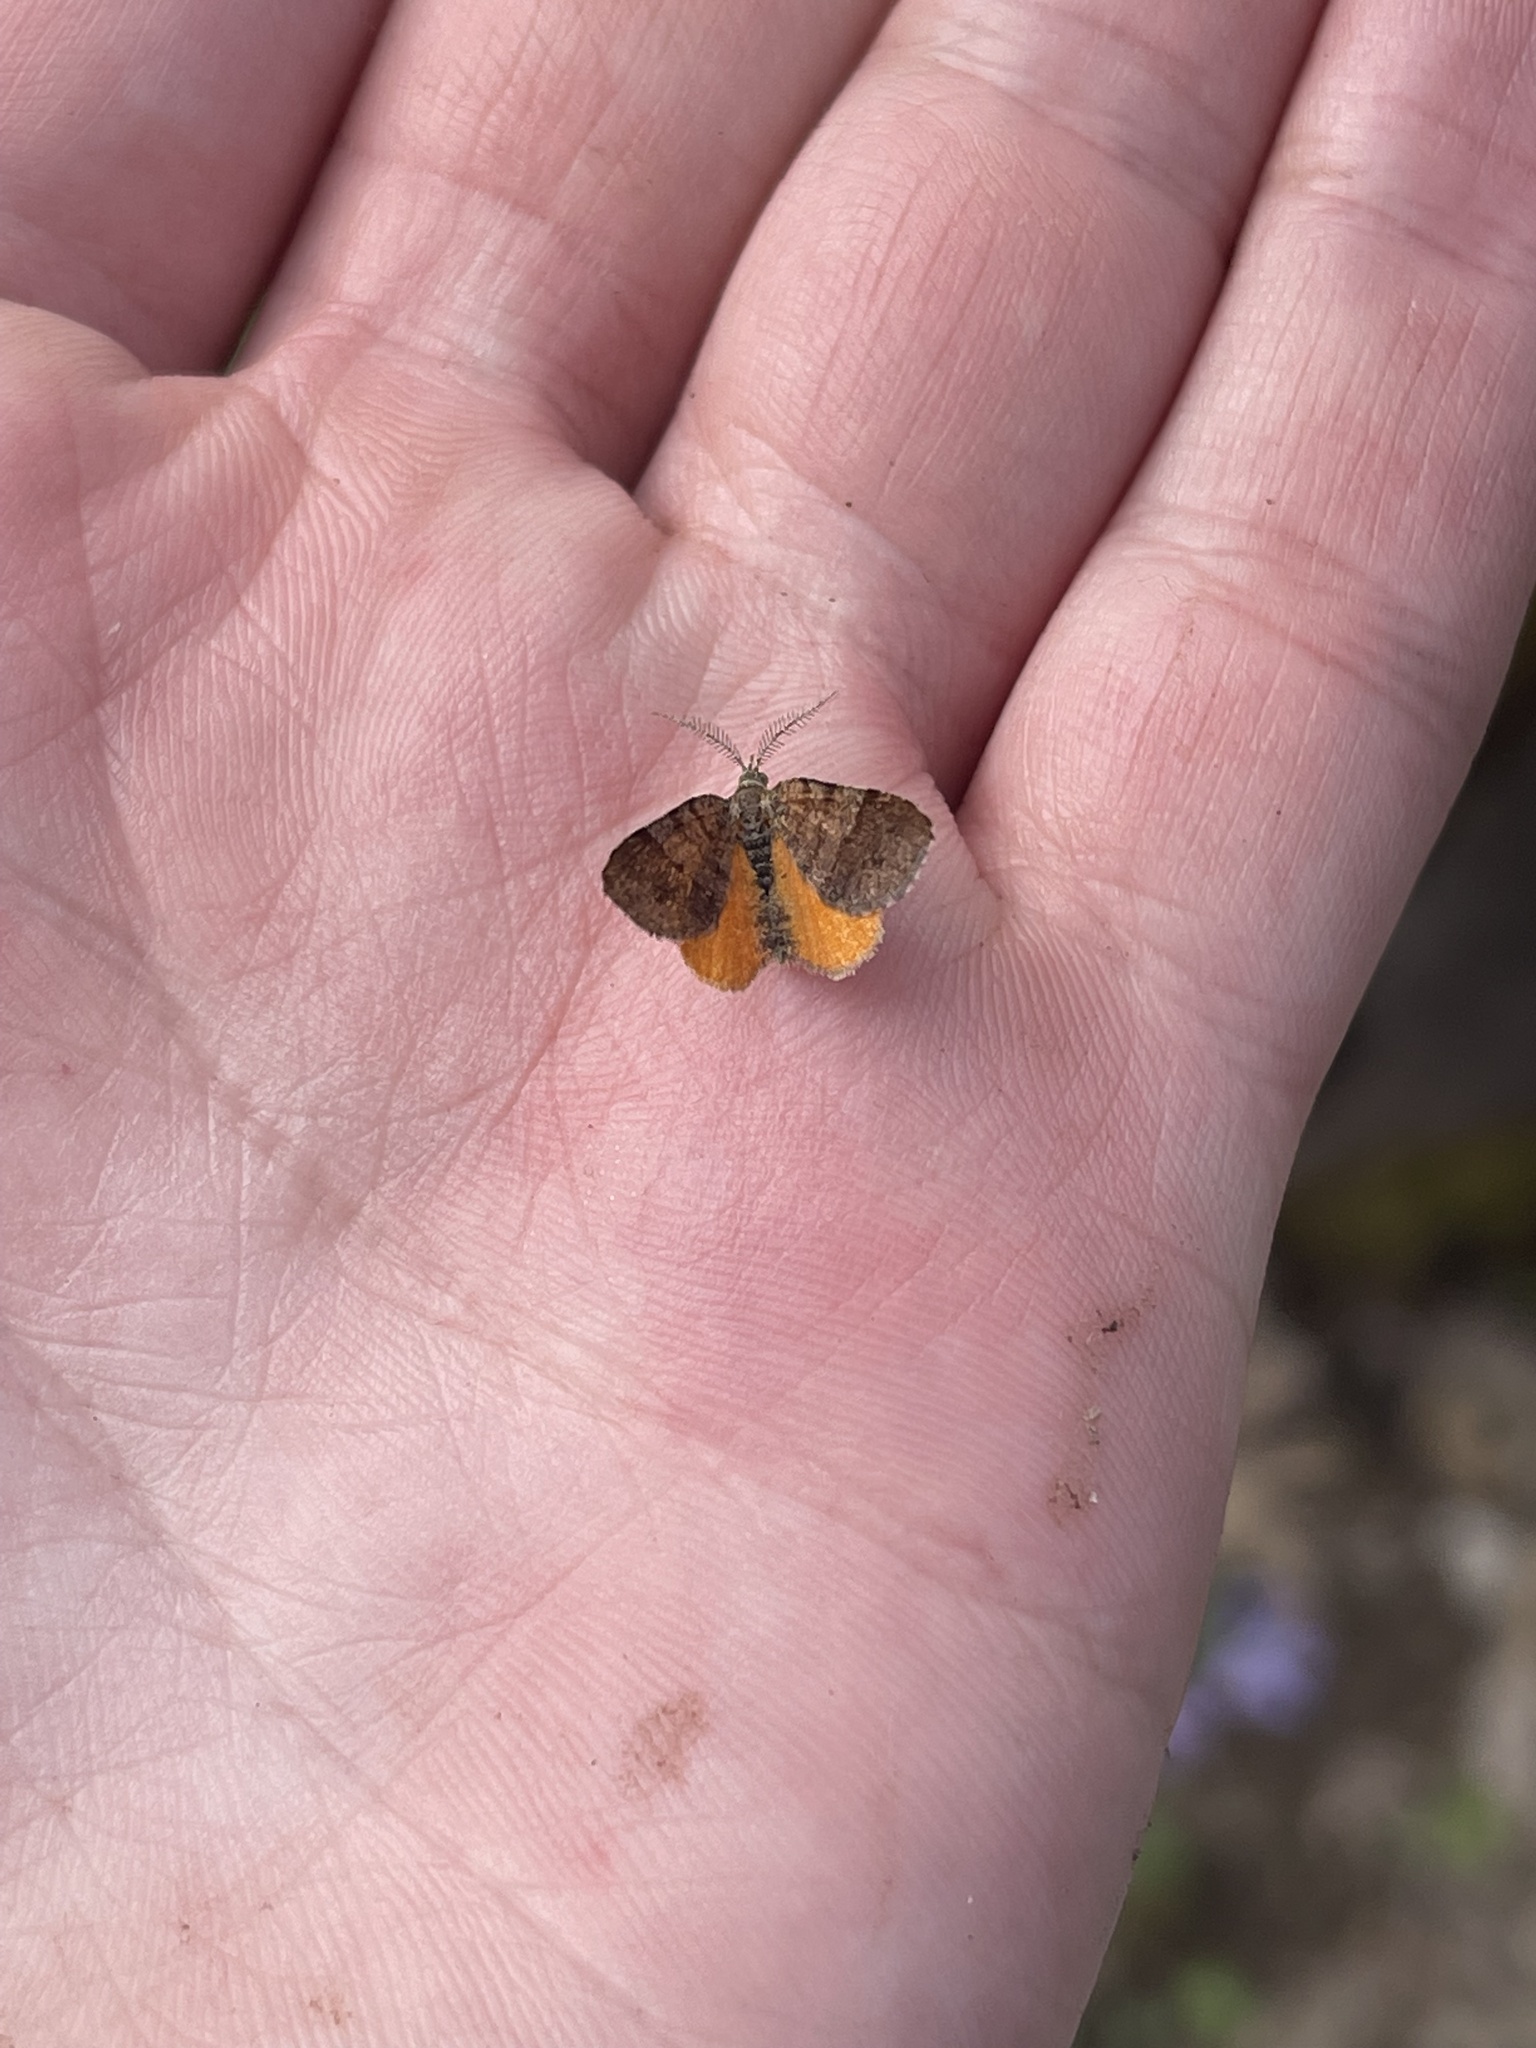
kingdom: Animalia
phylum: Arthropoda
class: Insecta
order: Lepidoptera
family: Geometridae
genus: Mellilla
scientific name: Mellilla xanthometata
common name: Orange wing moth
